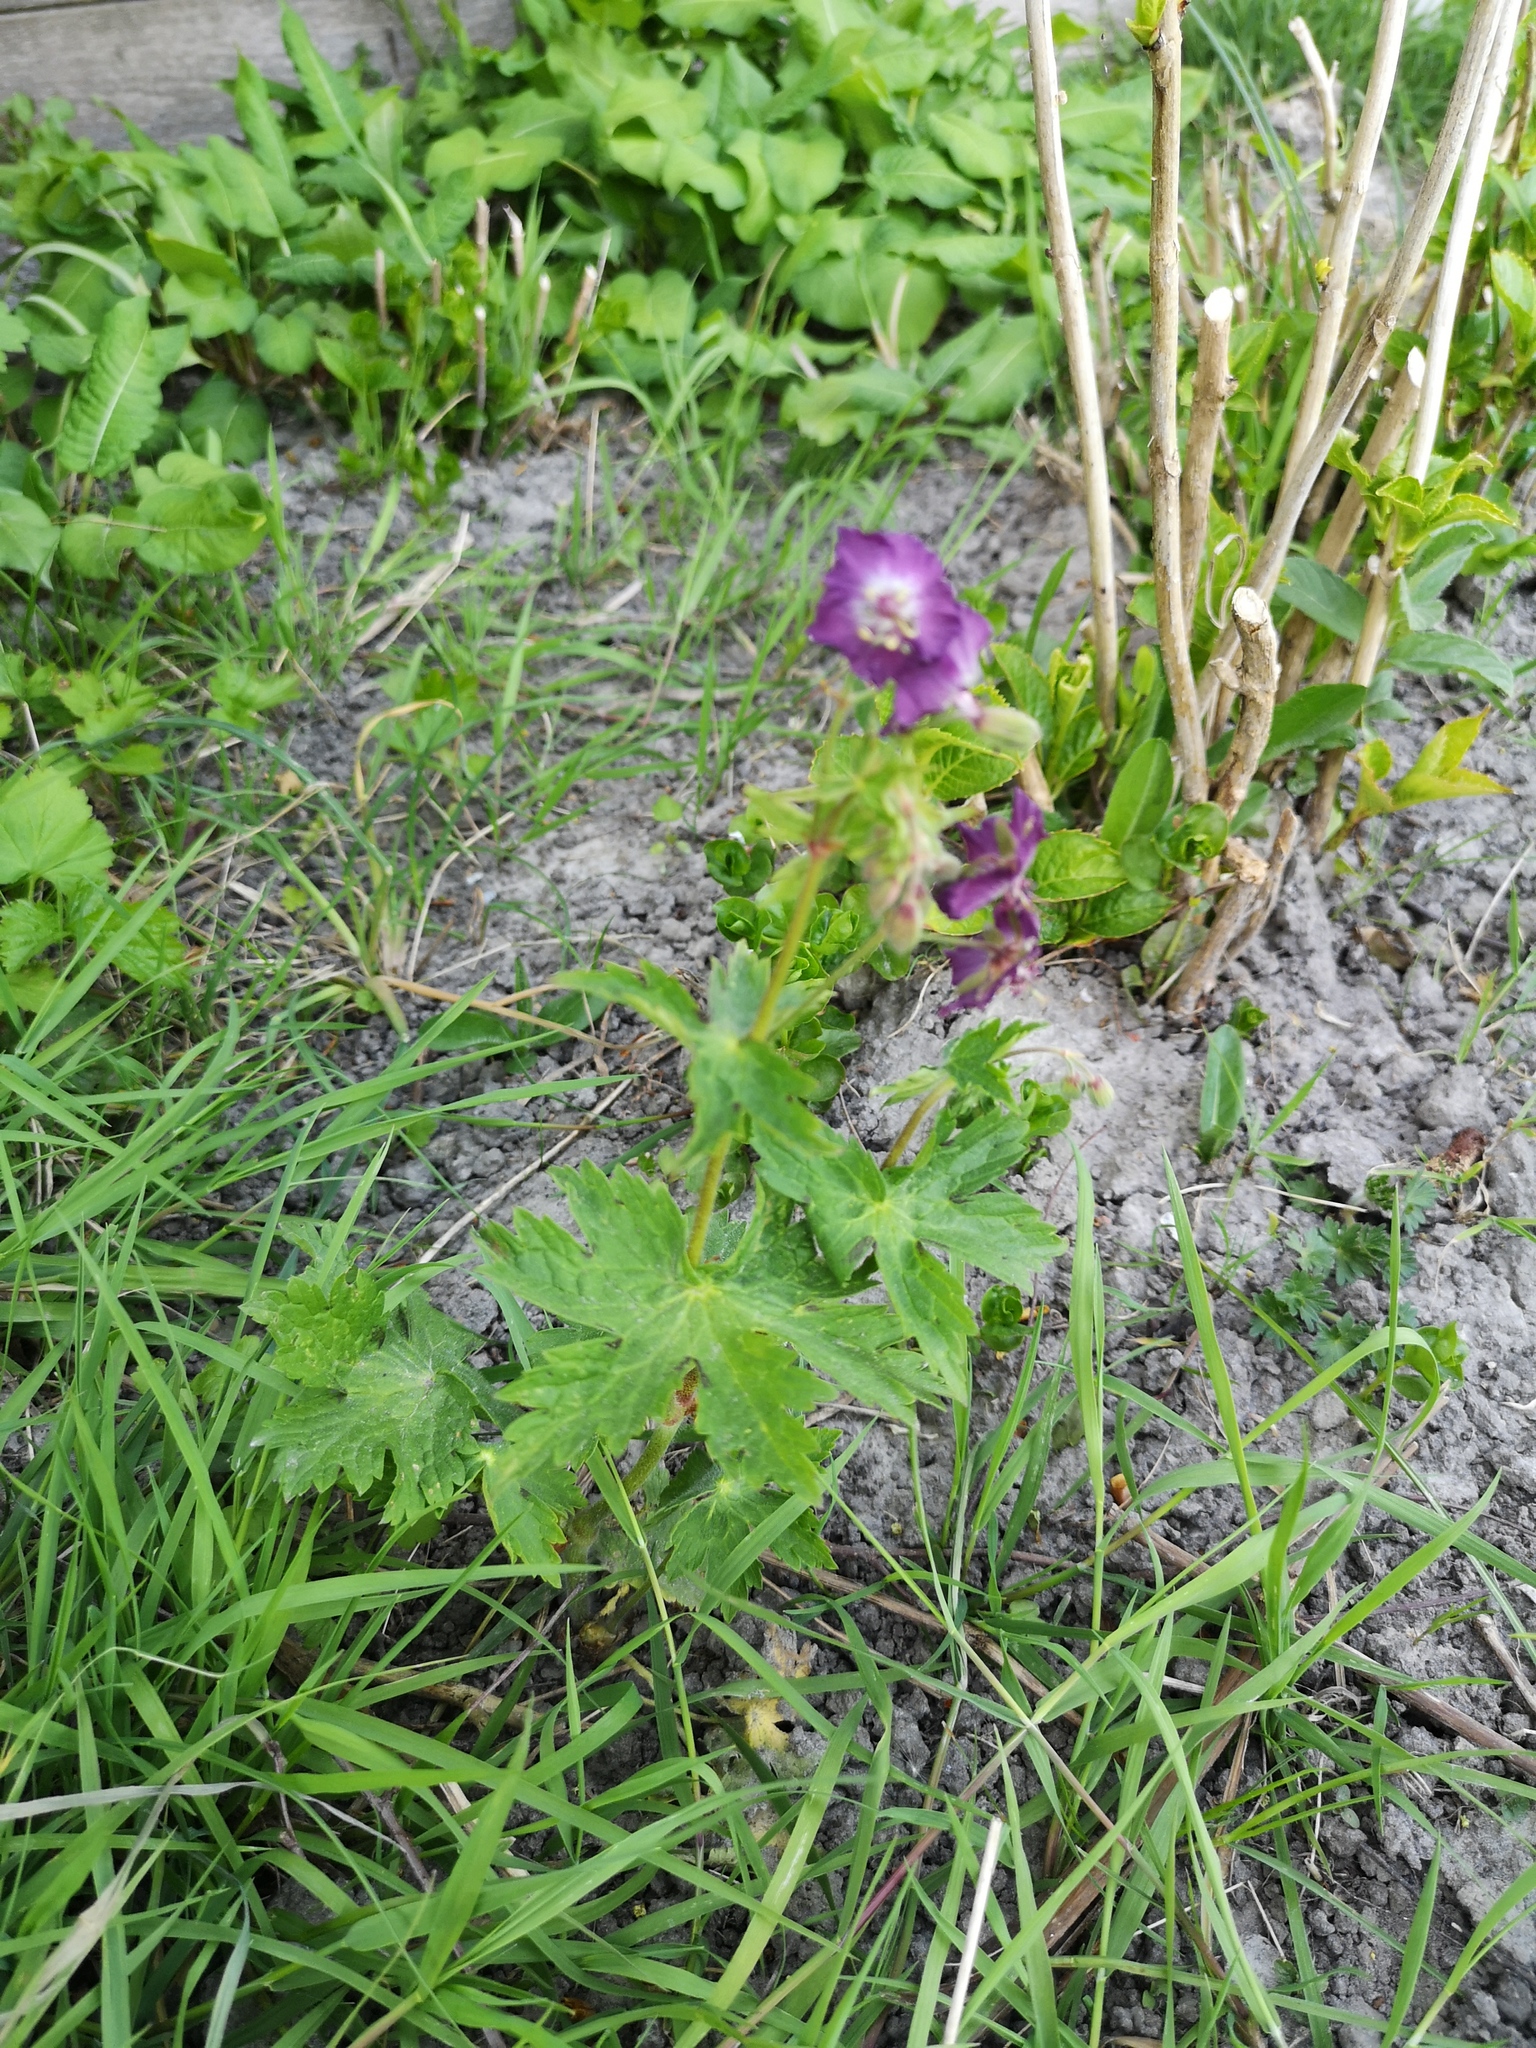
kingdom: Plantae
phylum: Tracheophyta
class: Magnoliopsida
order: Geraniales
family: Geraniaceae
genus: Geranium
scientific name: Geranium phaeum
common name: Dusky crane's-bill
